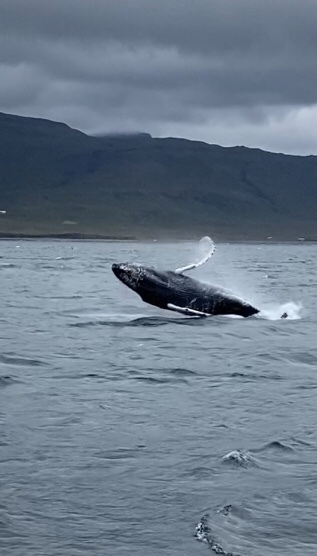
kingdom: Animalia
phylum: Chordata
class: Mammalia
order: Cetacea
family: Balaenopteridae
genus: Megaptera
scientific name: Megaptera novaeangliae
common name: Humpback whale
